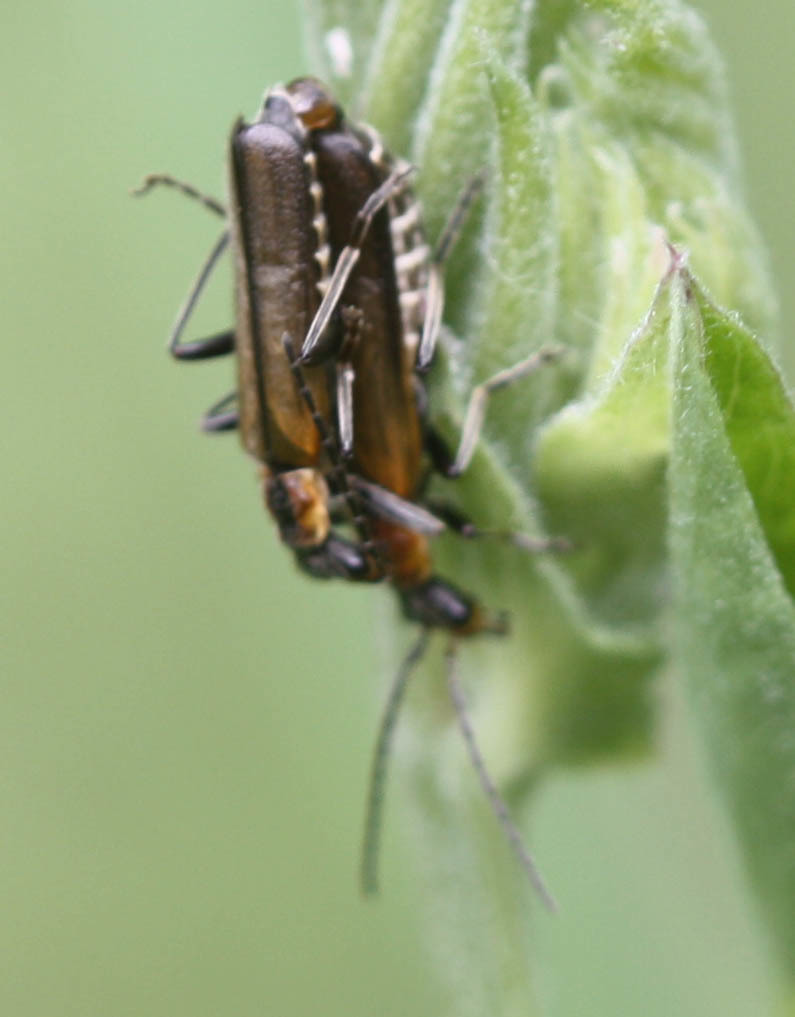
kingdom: Animalia
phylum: Arthropoda
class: Insecta
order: Coleoptera
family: Cantharidae
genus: Dichelotarsus
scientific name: Dichelotarsus cavicollis
